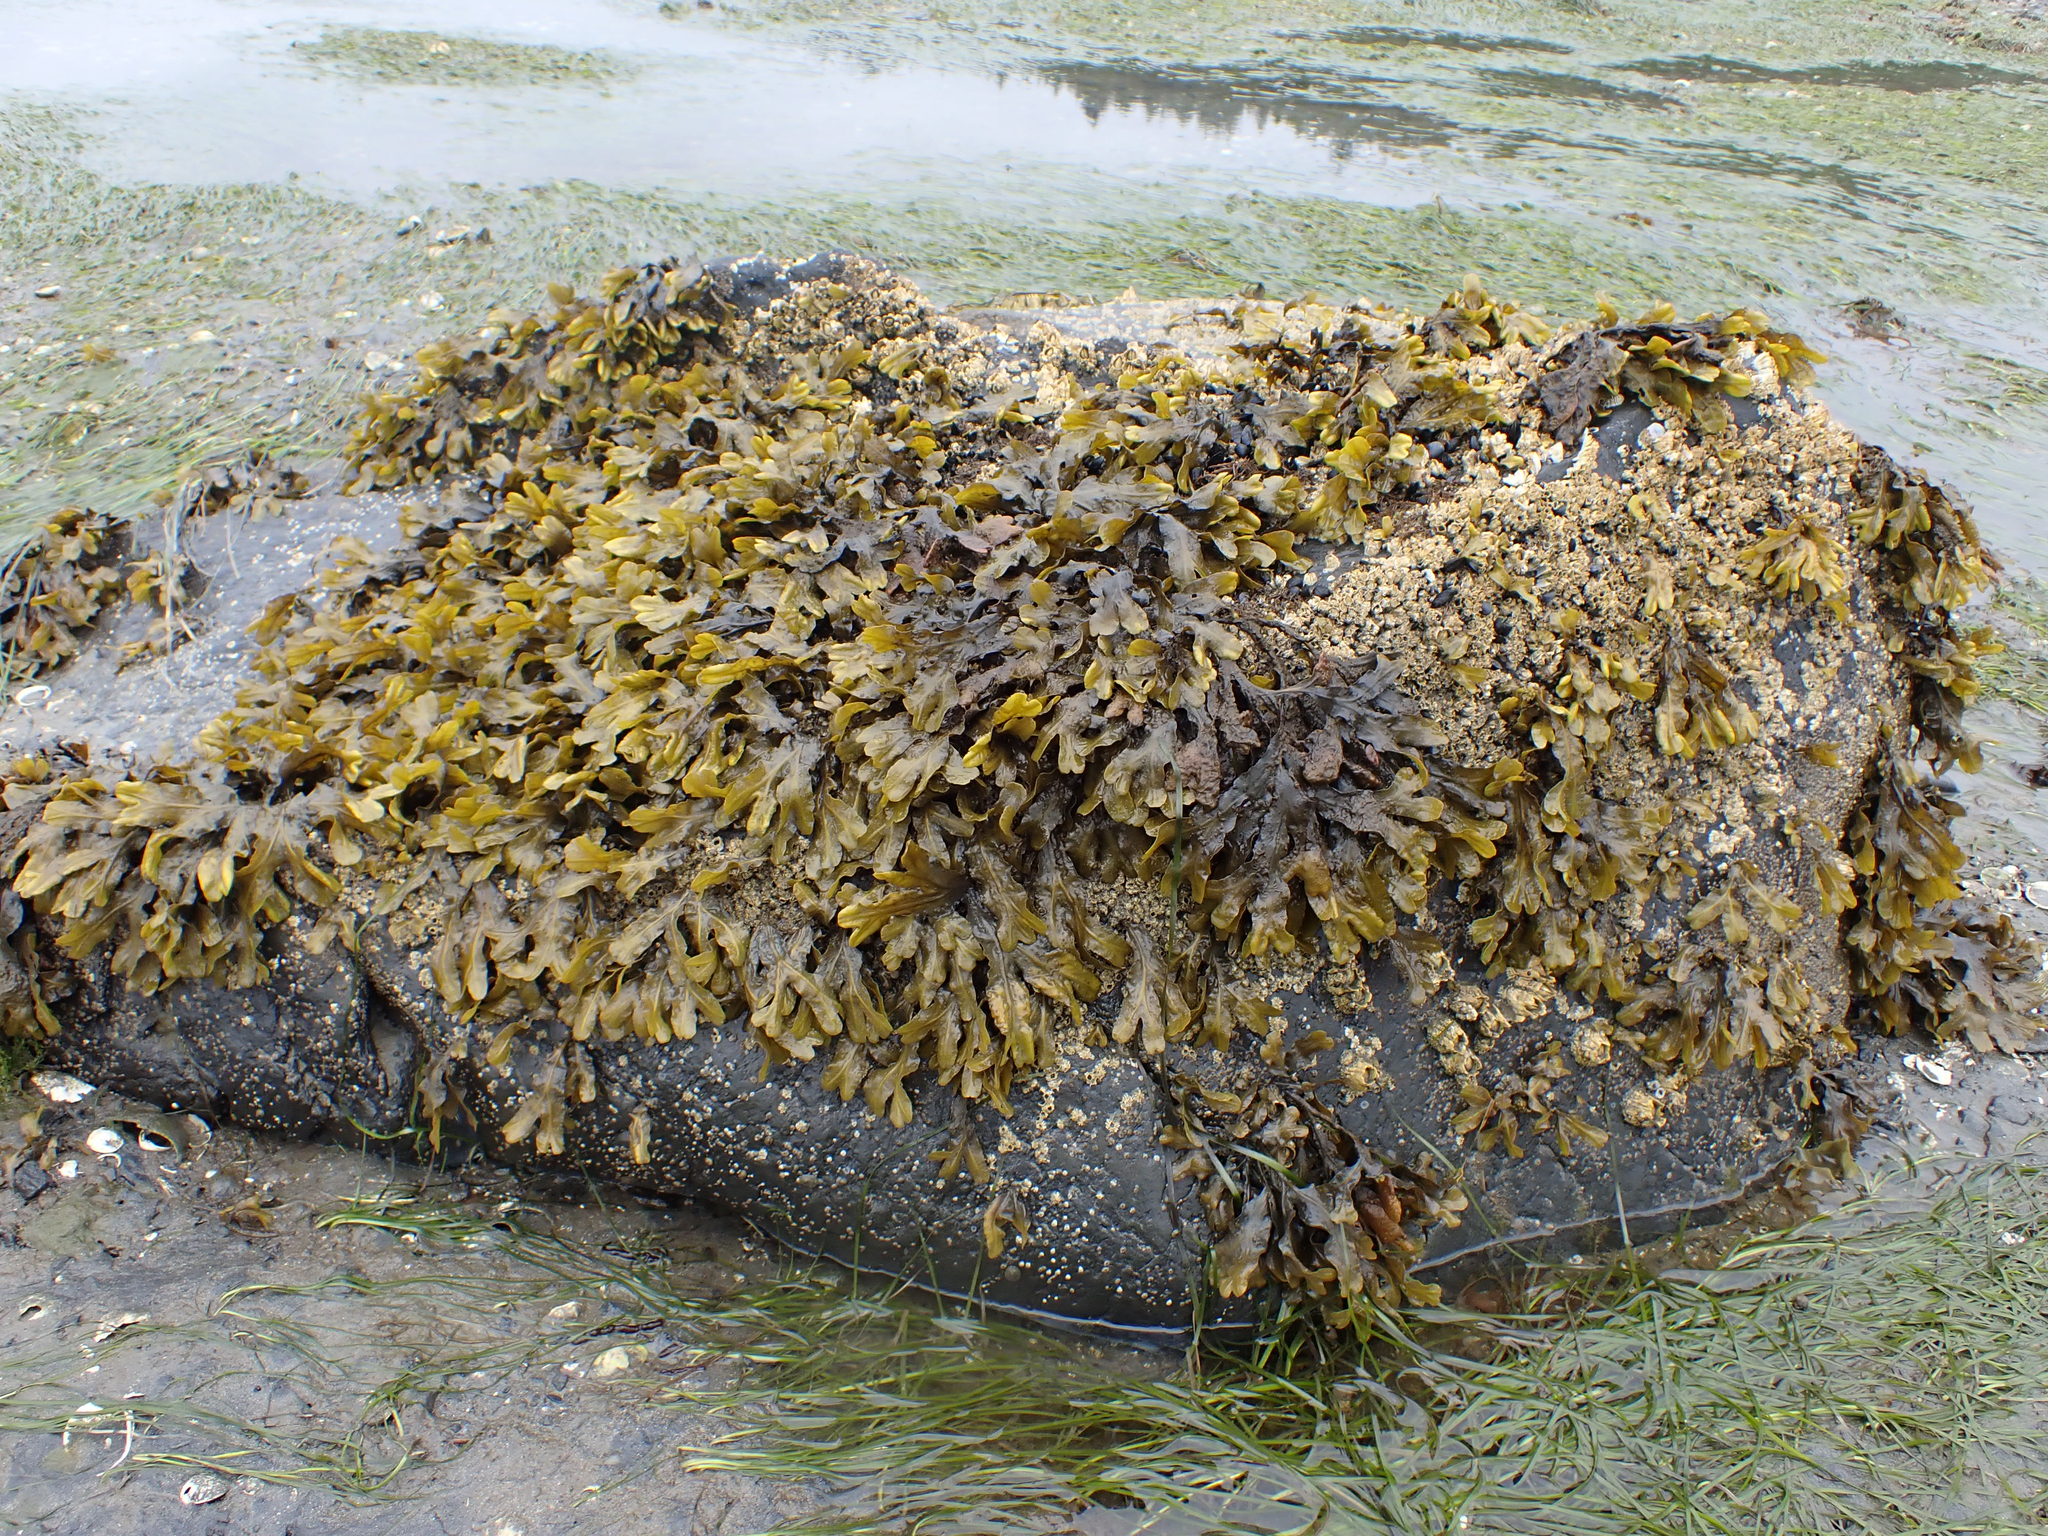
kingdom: Chromista
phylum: Ochrophyta
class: Phaeophyceae
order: Fucales
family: Fucaceae
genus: Fucus
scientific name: Fucus distichus
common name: Rockweed
